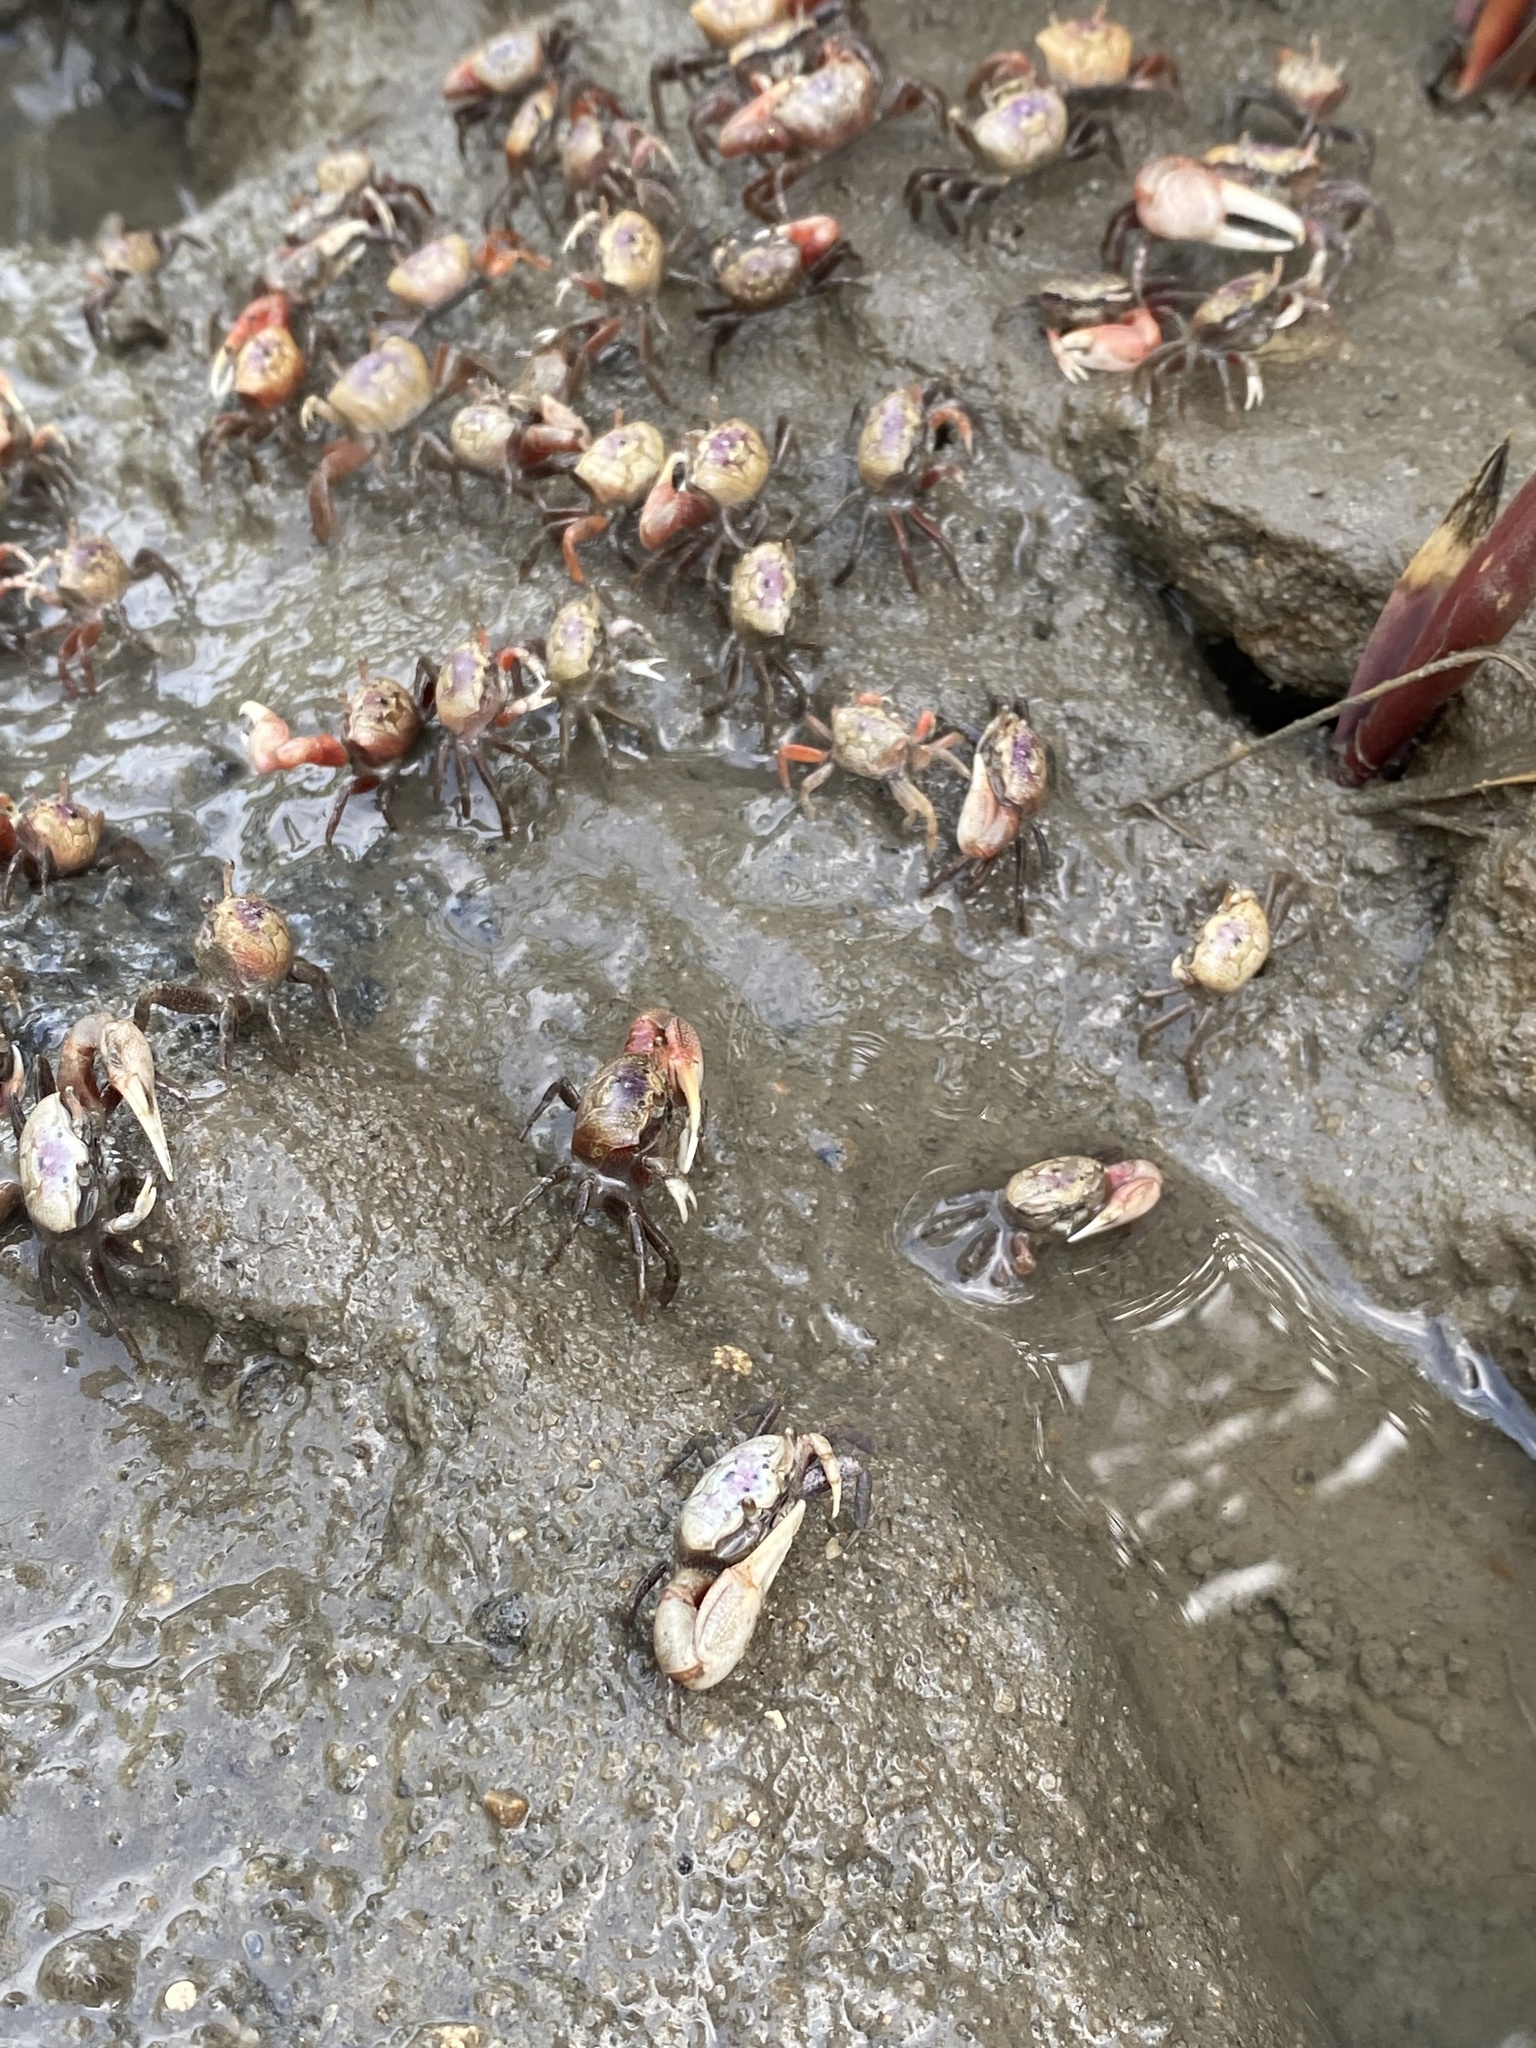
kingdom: Animalia
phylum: Arthropoda
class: Malacostraca
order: Decapoda
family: Ocypodidae
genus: Leptuca
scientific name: Leptuca pugilator
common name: Atlantic sand fiddler crab
